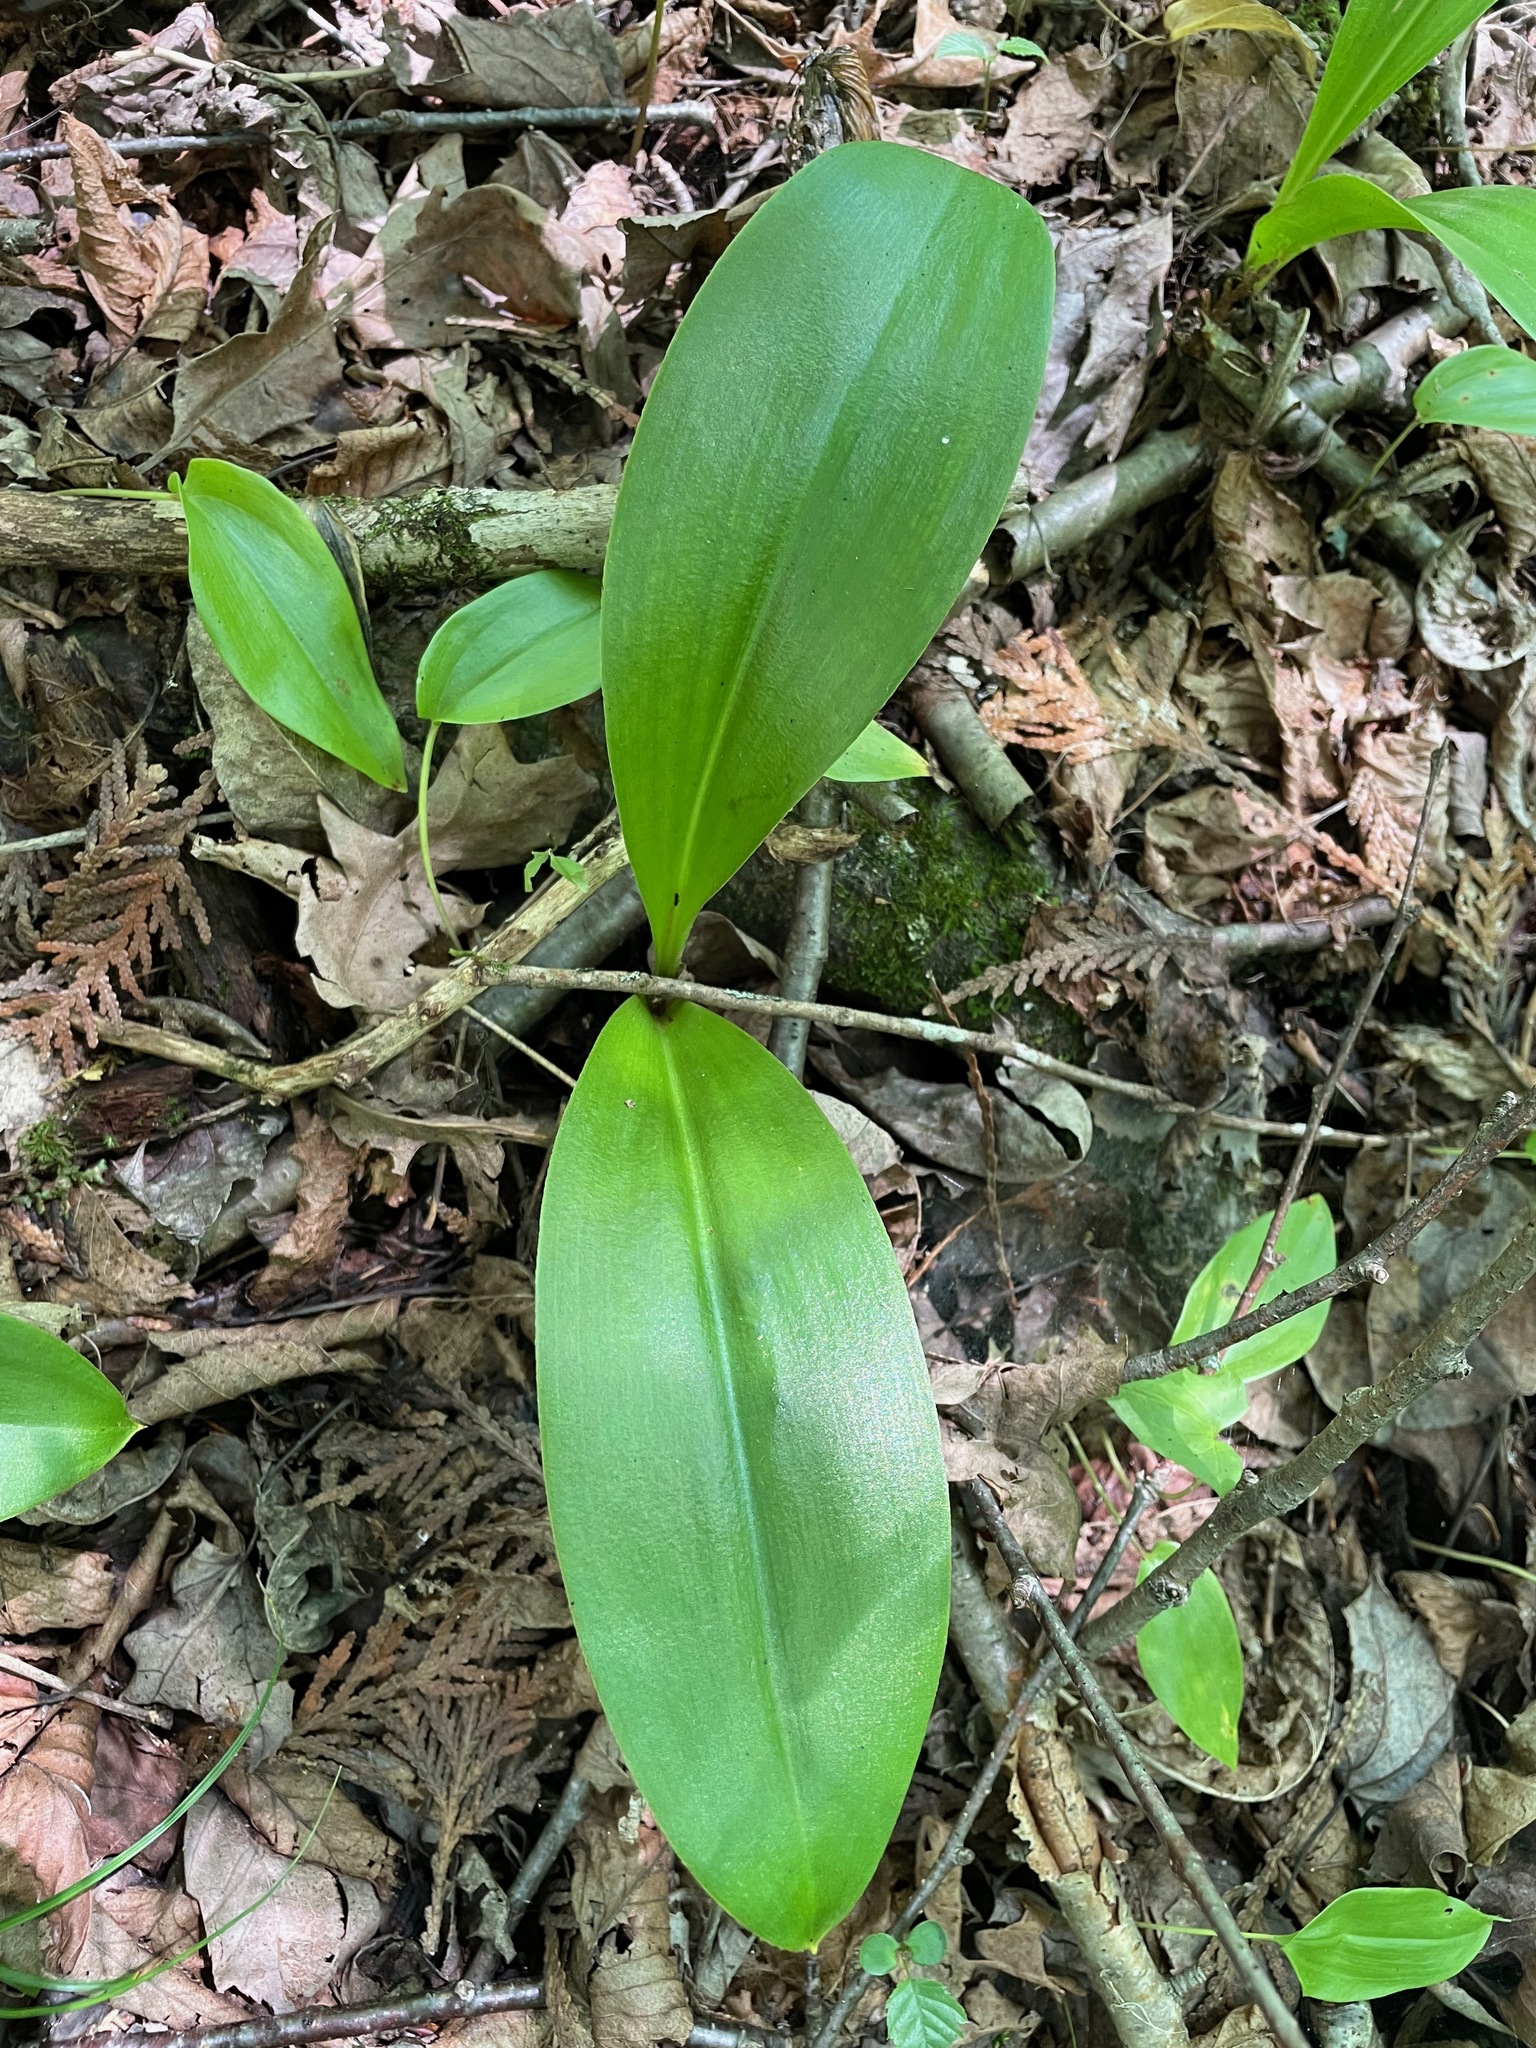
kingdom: Plantae
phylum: Tracheophyta
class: Liliopsida
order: Liliales
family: Liliaceae
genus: Clintonia
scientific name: Clintonia borealis
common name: Yellow clintonia
